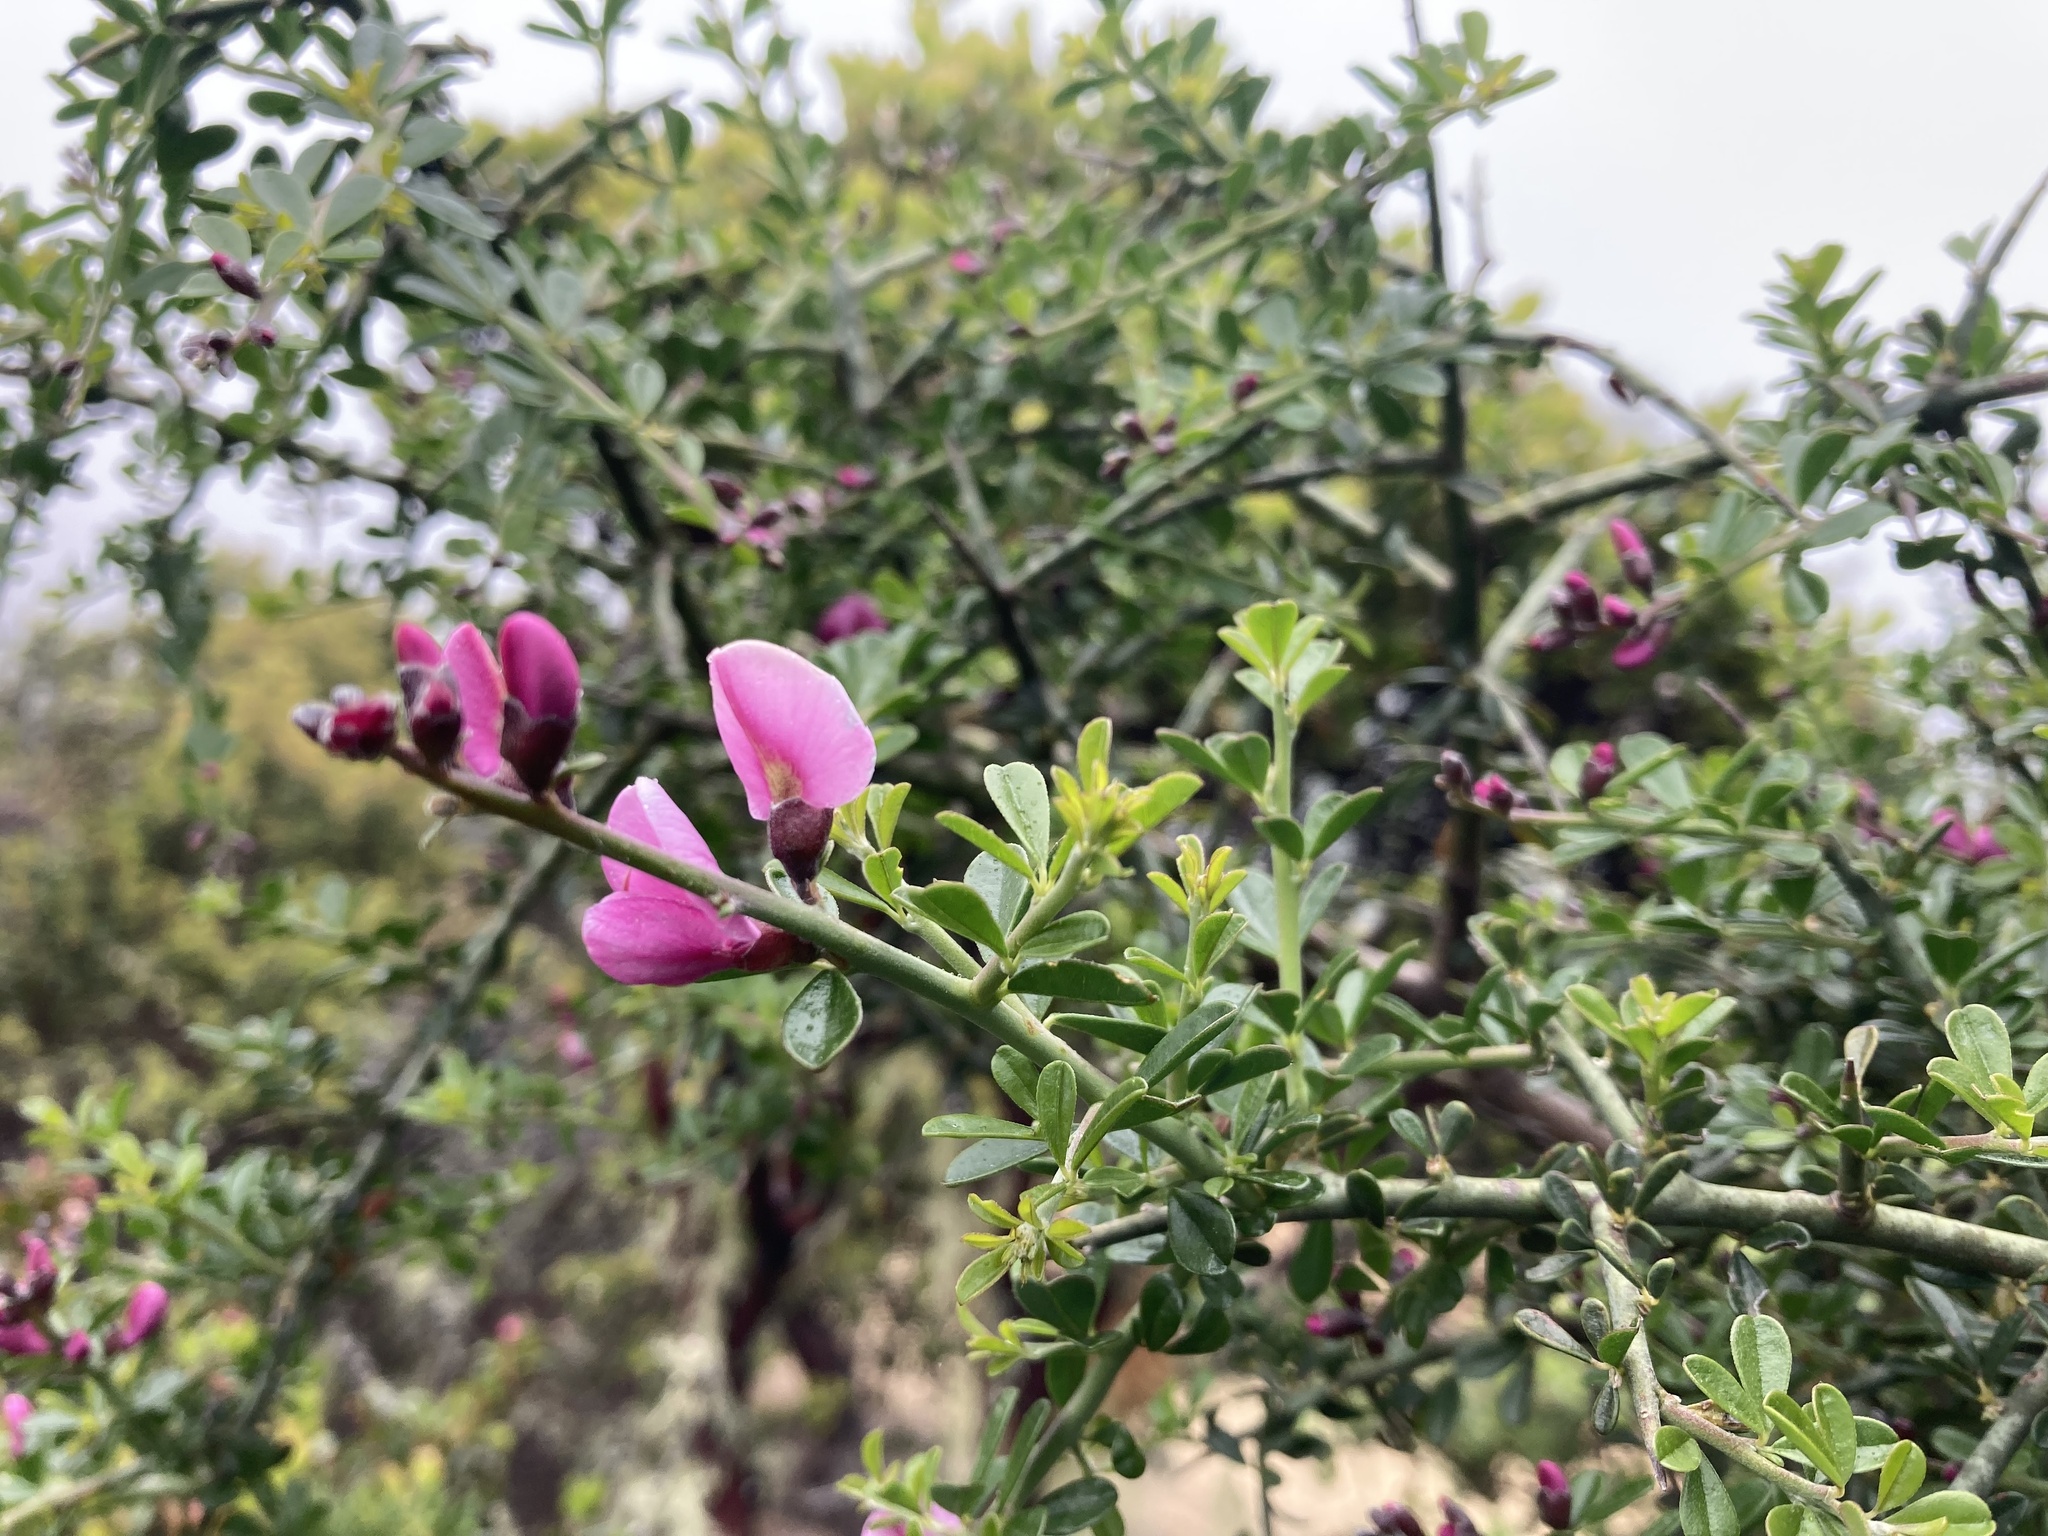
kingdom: Plantae
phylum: Tracheophyta
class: Magnoliopsida
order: Fabales
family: Fabaceae
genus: Pickeringia
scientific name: Pickeringia montana
